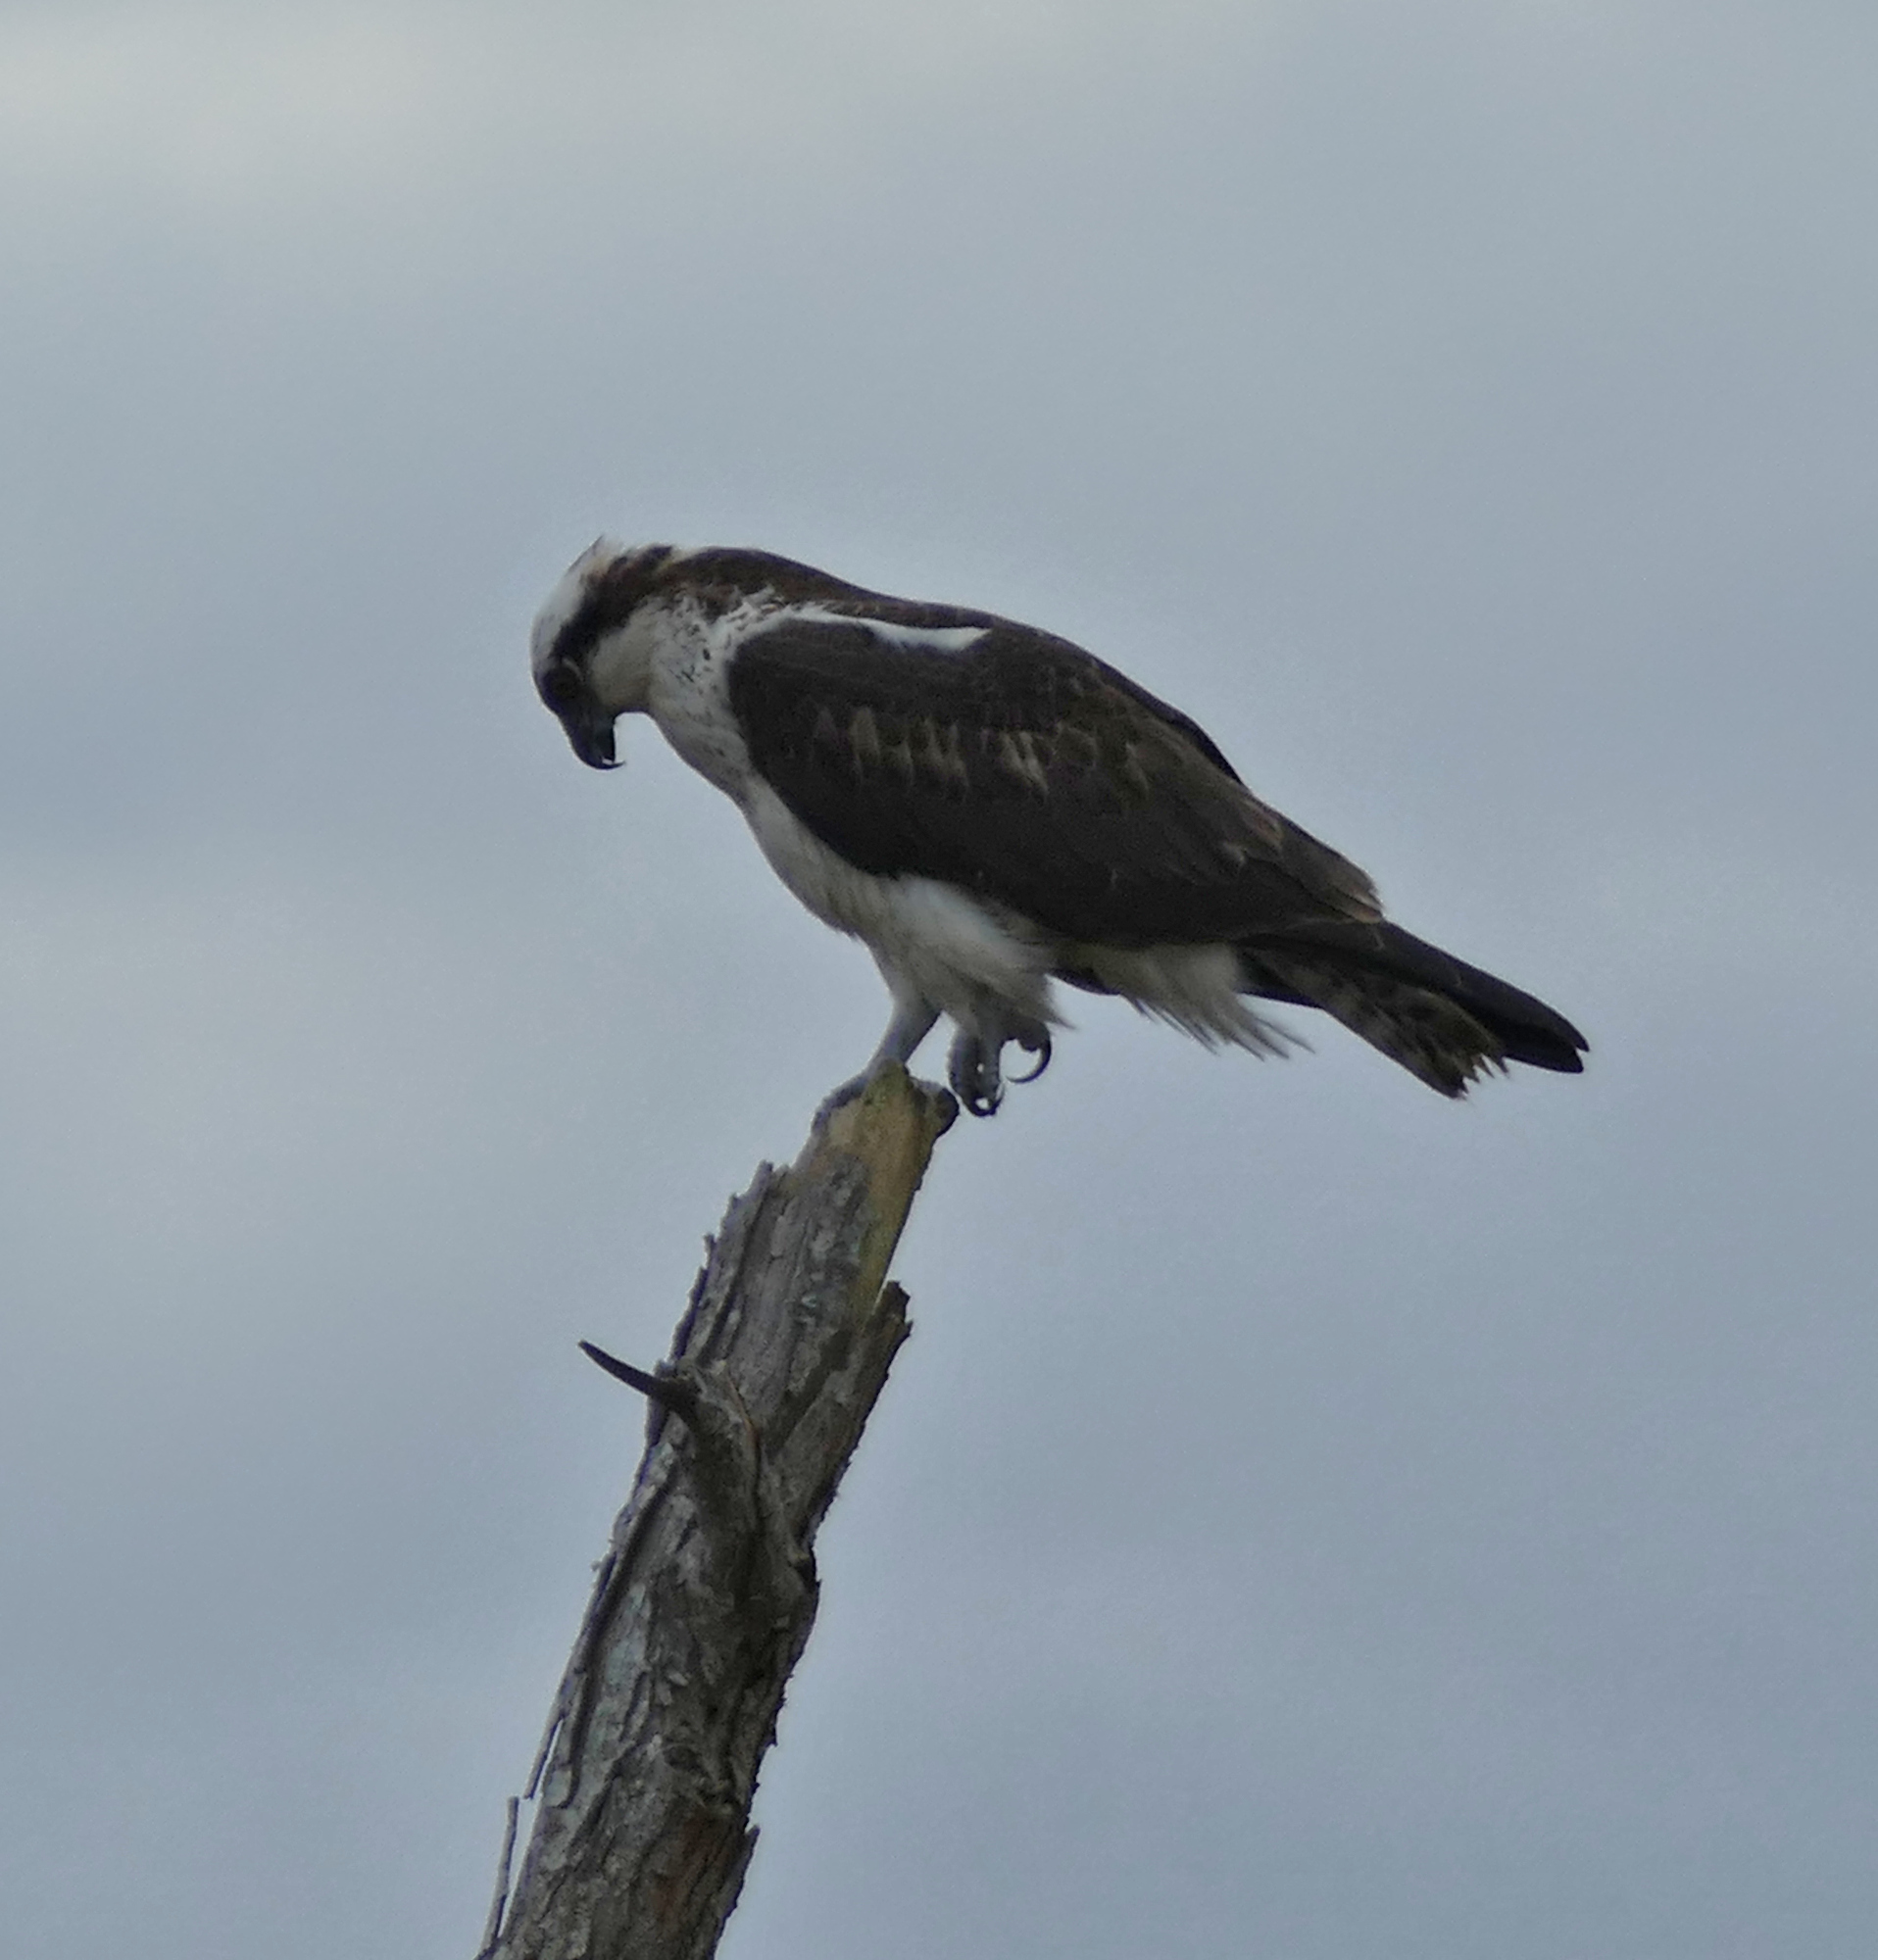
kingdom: Animalia
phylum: Chordata
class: Aves
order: Accipitriformes
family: Pandionidae
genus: Pandion
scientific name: Pandion haliaetus
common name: Osprey
